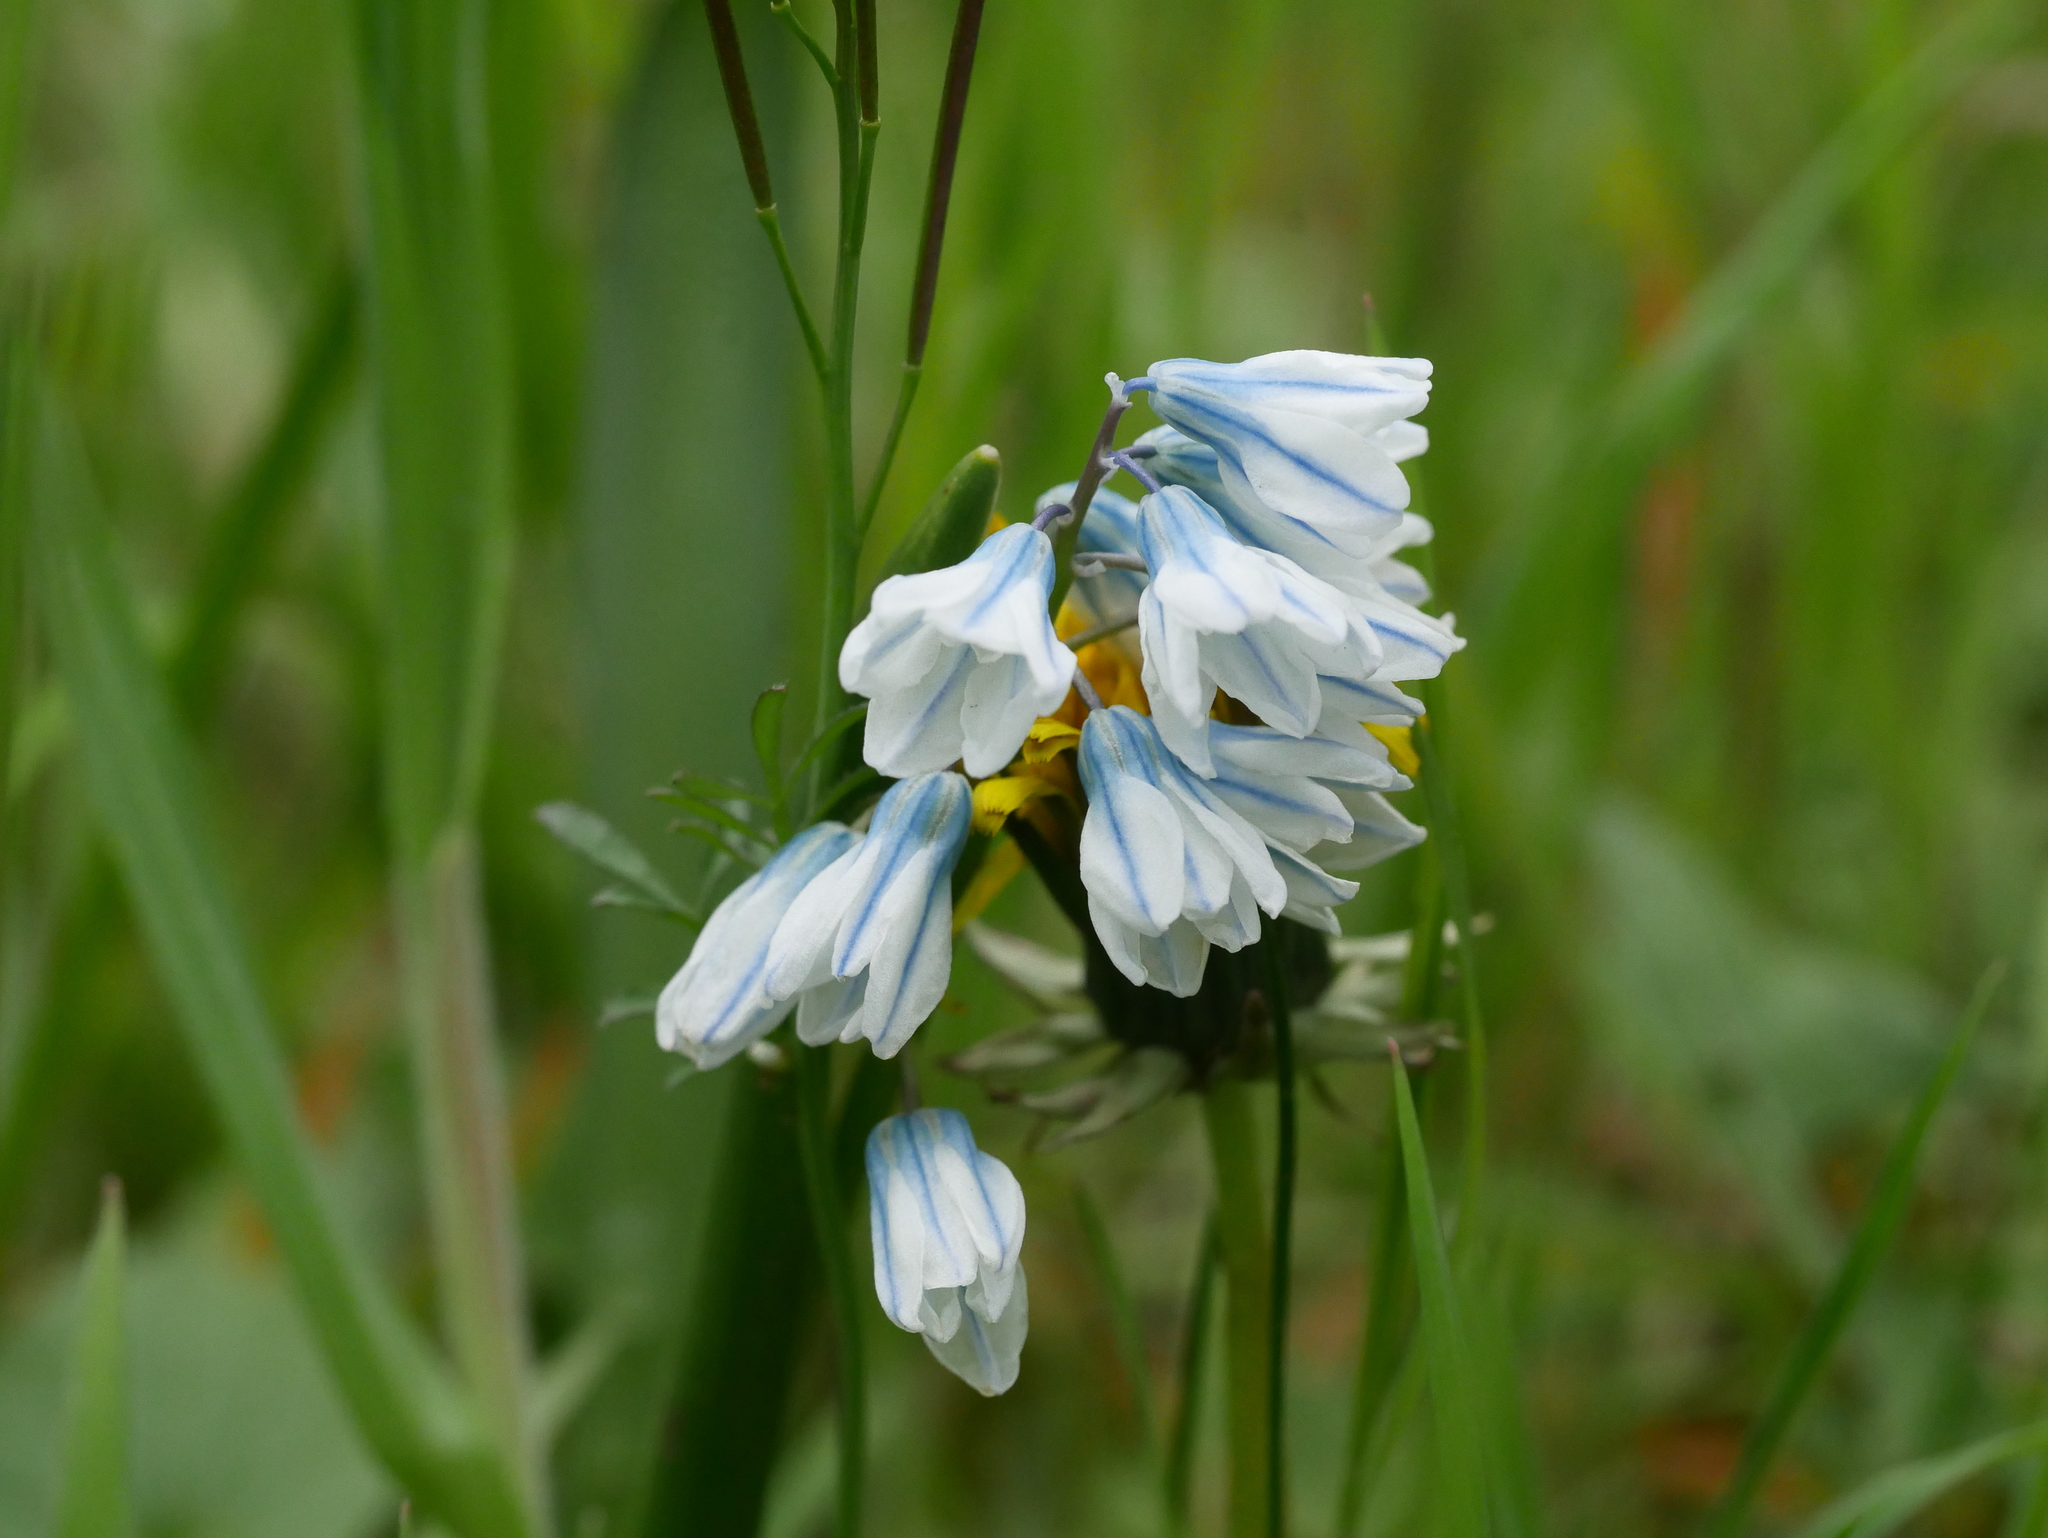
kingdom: Plantae
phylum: Tracheophyta
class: Liliopsida
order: Asparagales
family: Asparagaceae
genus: Puschkinia
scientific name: Puschkinia scilloides
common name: Striped squill
